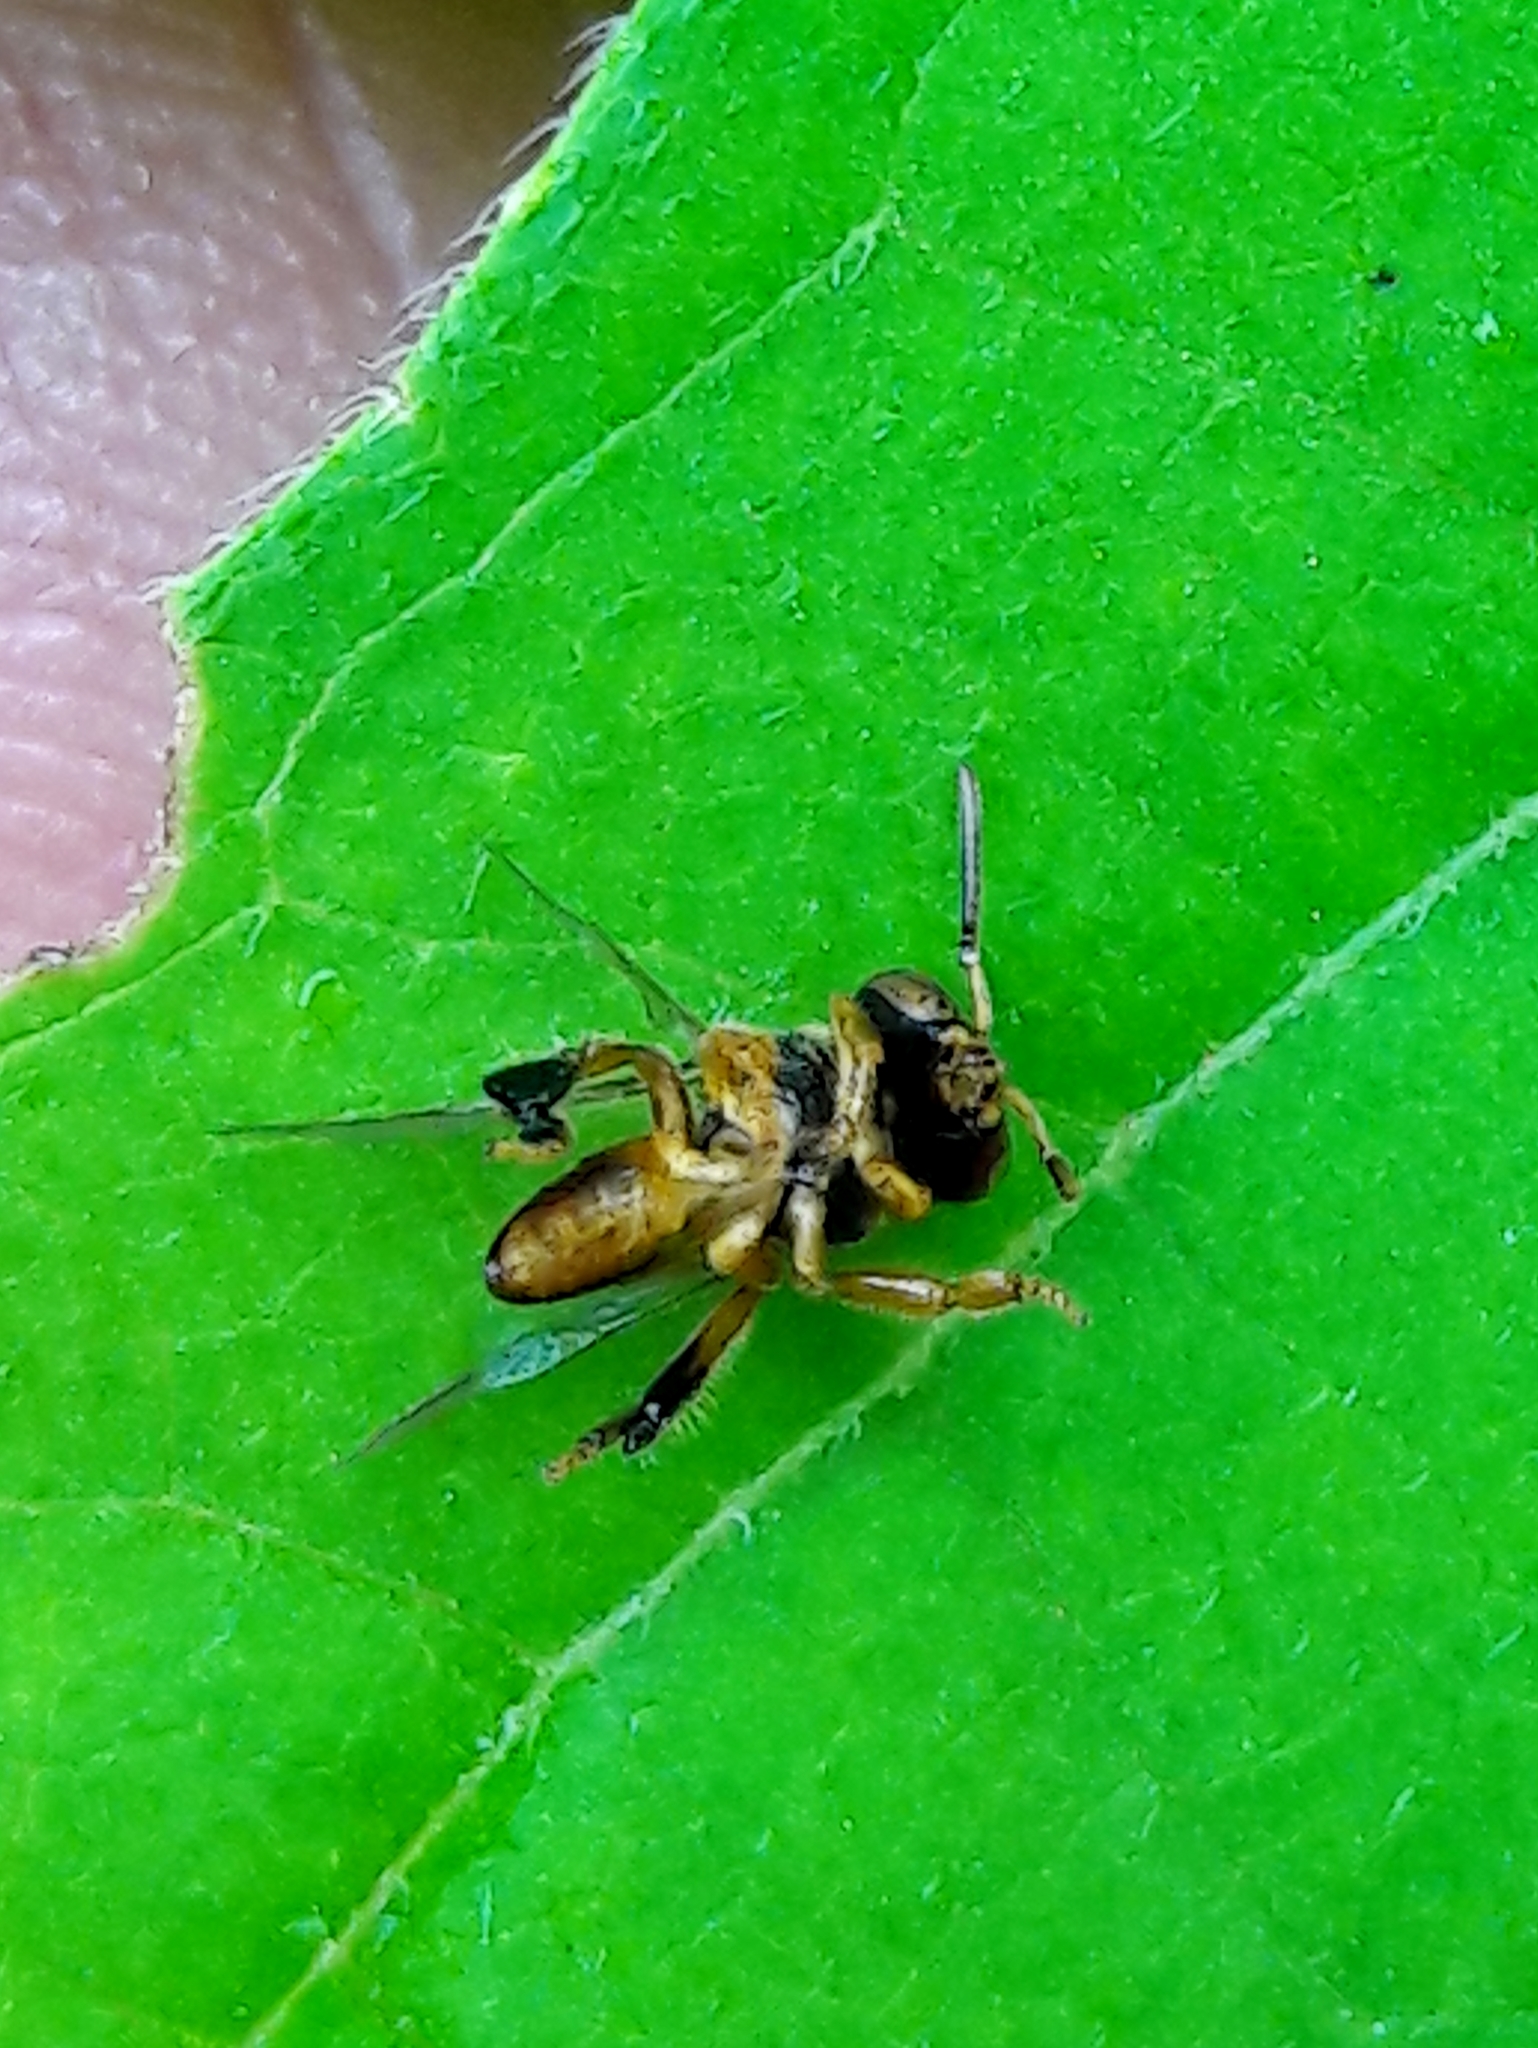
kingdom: Animalia
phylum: Arthropoda
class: Insecta
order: Hymenoptera
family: Apidae
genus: Tetragona
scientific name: Tetragona clavipes
